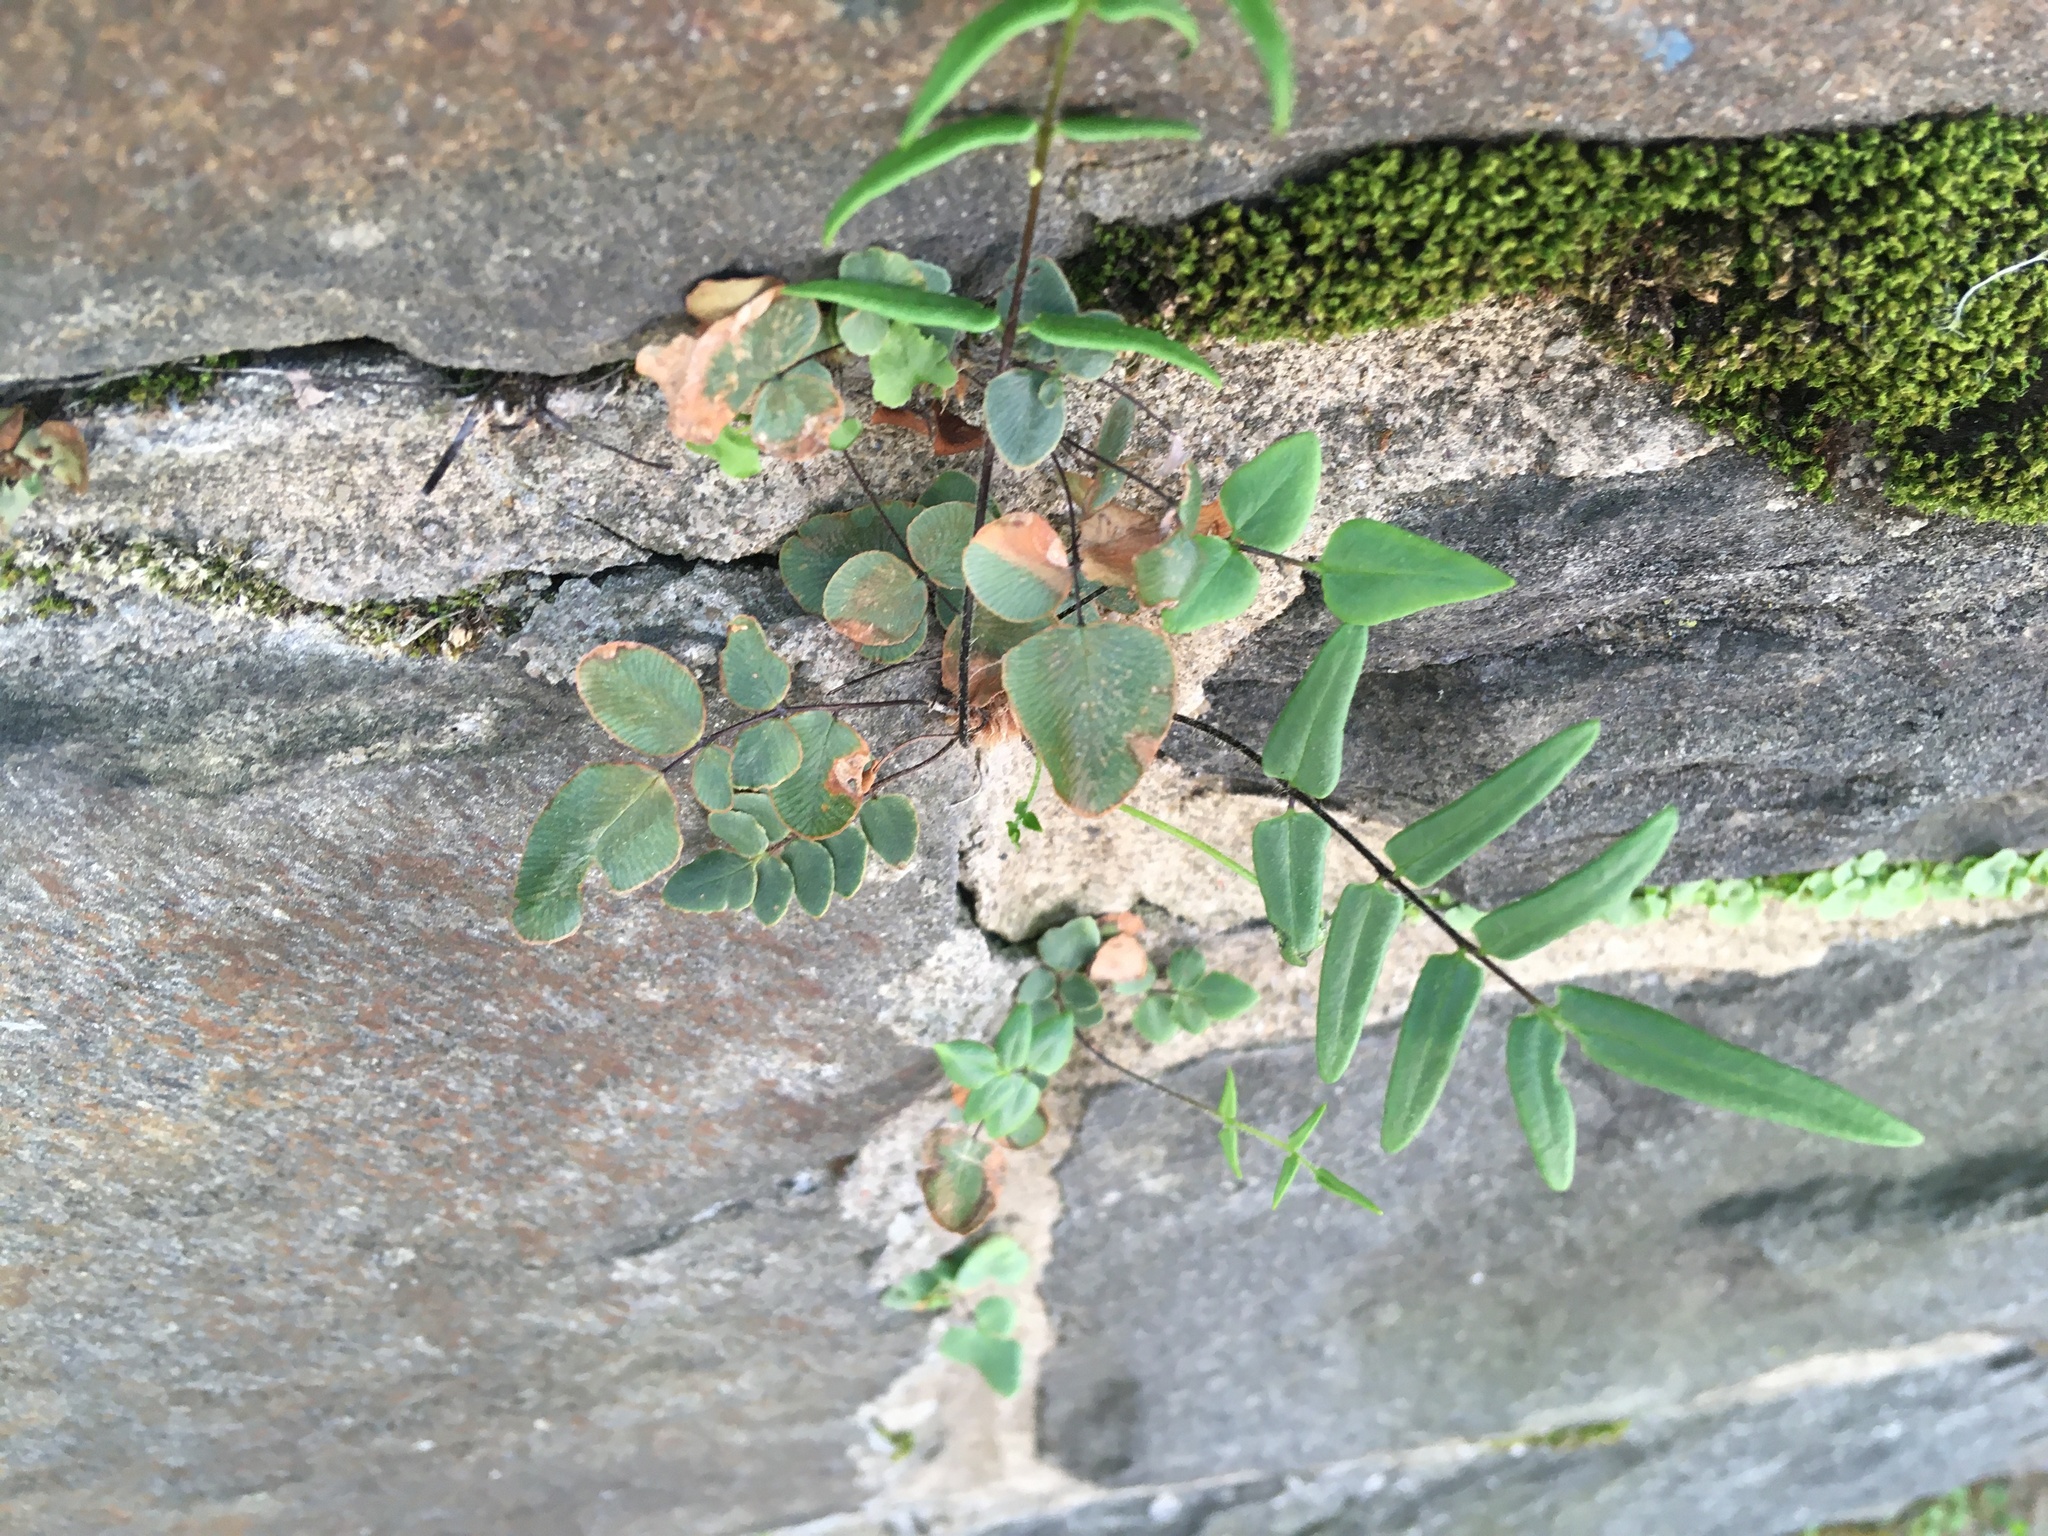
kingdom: Plantae
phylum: Tracheophyta
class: Polypodiopsida
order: Polypodiales
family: Pteridaceae
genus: Pellaea
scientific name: Pellaea atropurpurea
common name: Hairy cliffbrake
